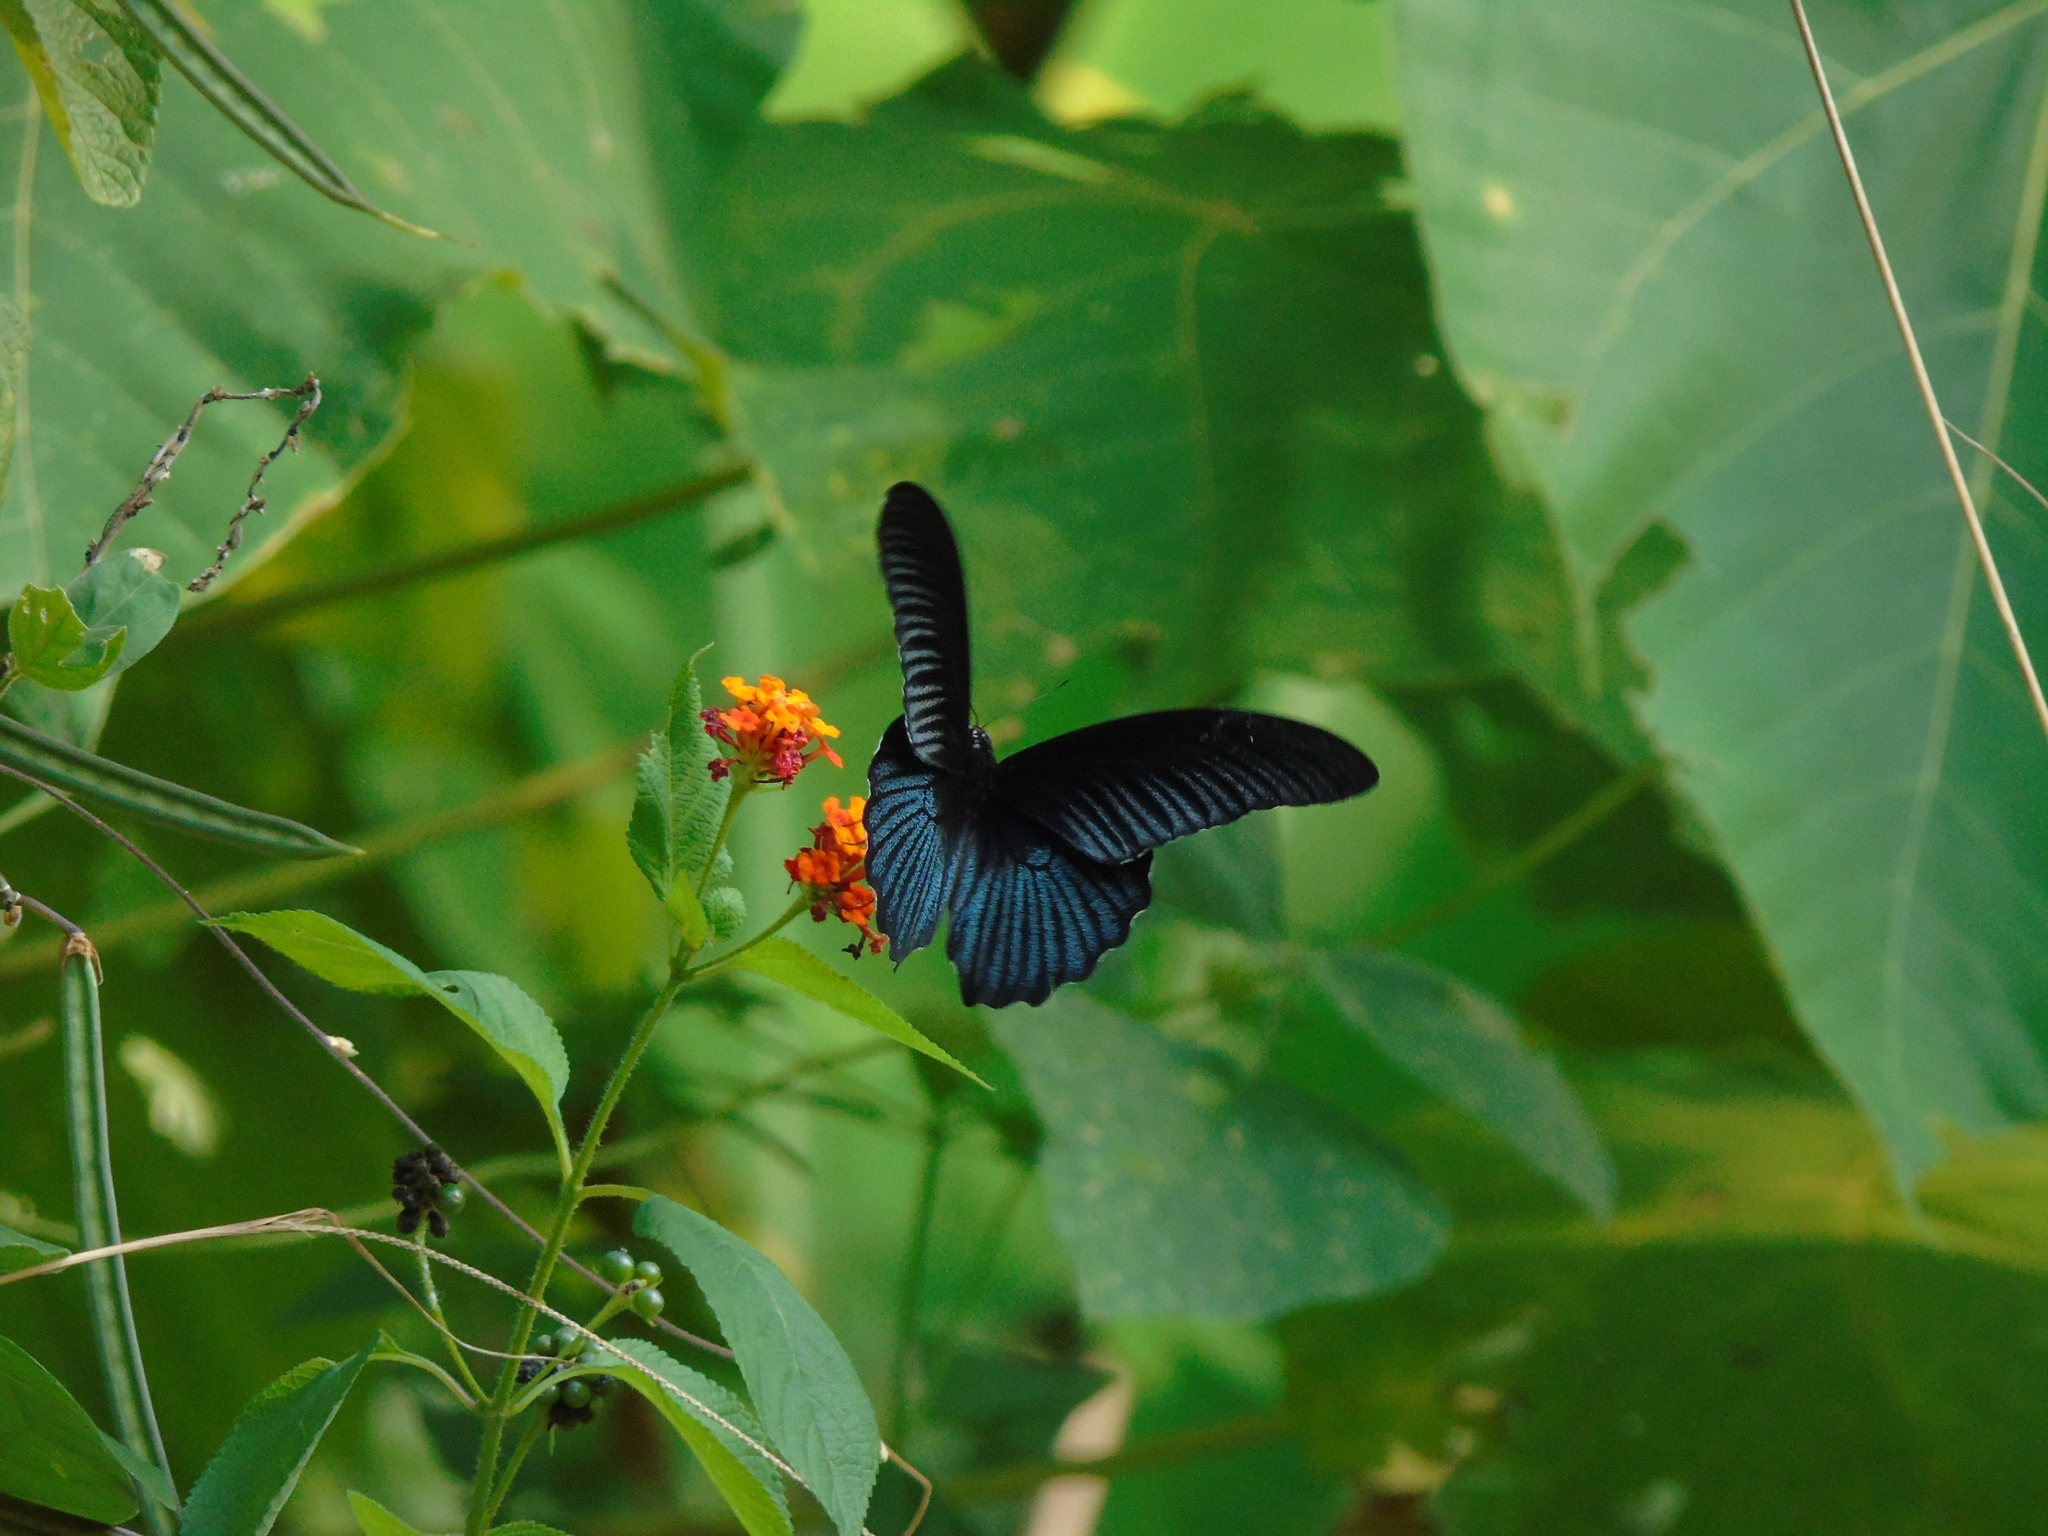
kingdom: Animalia
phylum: Arthropoda
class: Insecta
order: Lepidoptera
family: Papilionidae
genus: Papilio
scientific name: Papilio memnon
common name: Great mormon
